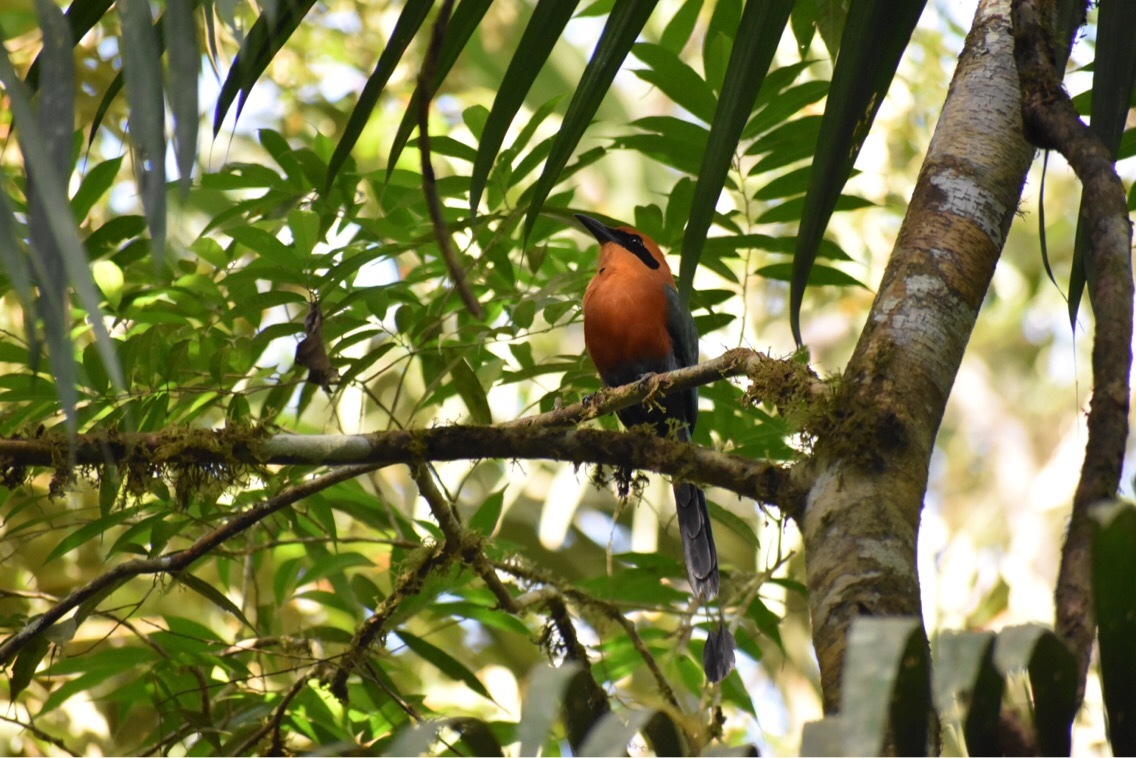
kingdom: Animalia
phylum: Chordata
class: Aves
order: Coraciiformes
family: Momotidae
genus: Baryphthengus
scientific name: Baryphthengus martii
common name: Rufous motmot
